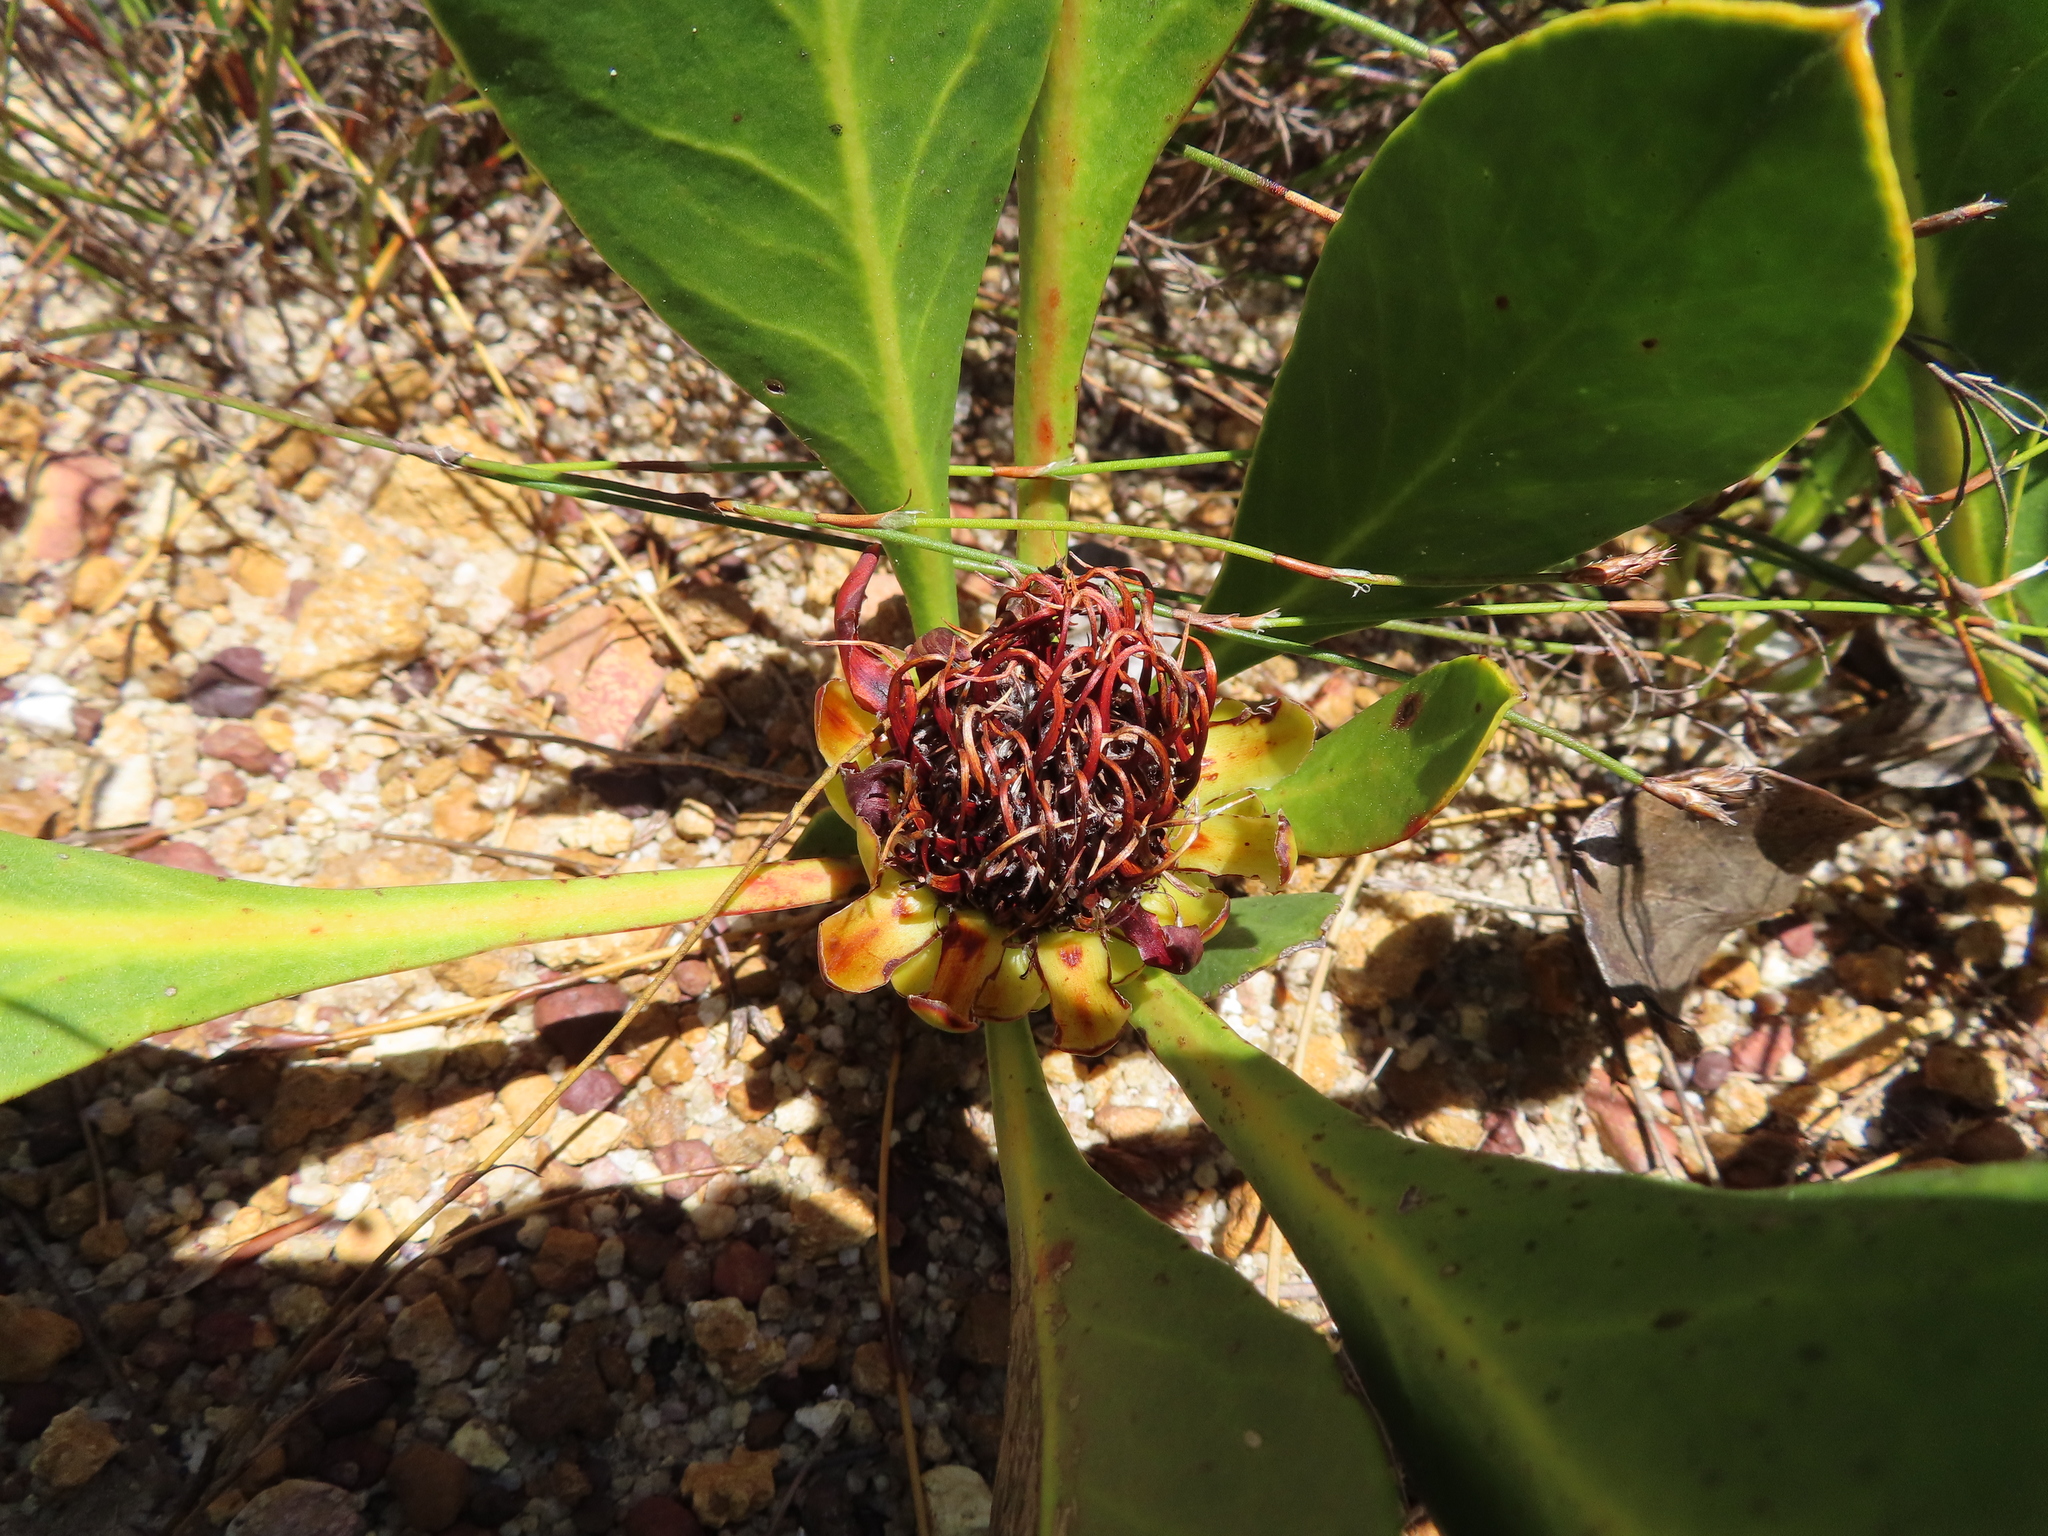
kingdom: Plantae
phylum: Tracheophyta
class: Magnoliopsida
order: Proteales
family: Proteaceae
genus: Protea
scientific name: Protea acaulos
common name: Common ground sugarbush
